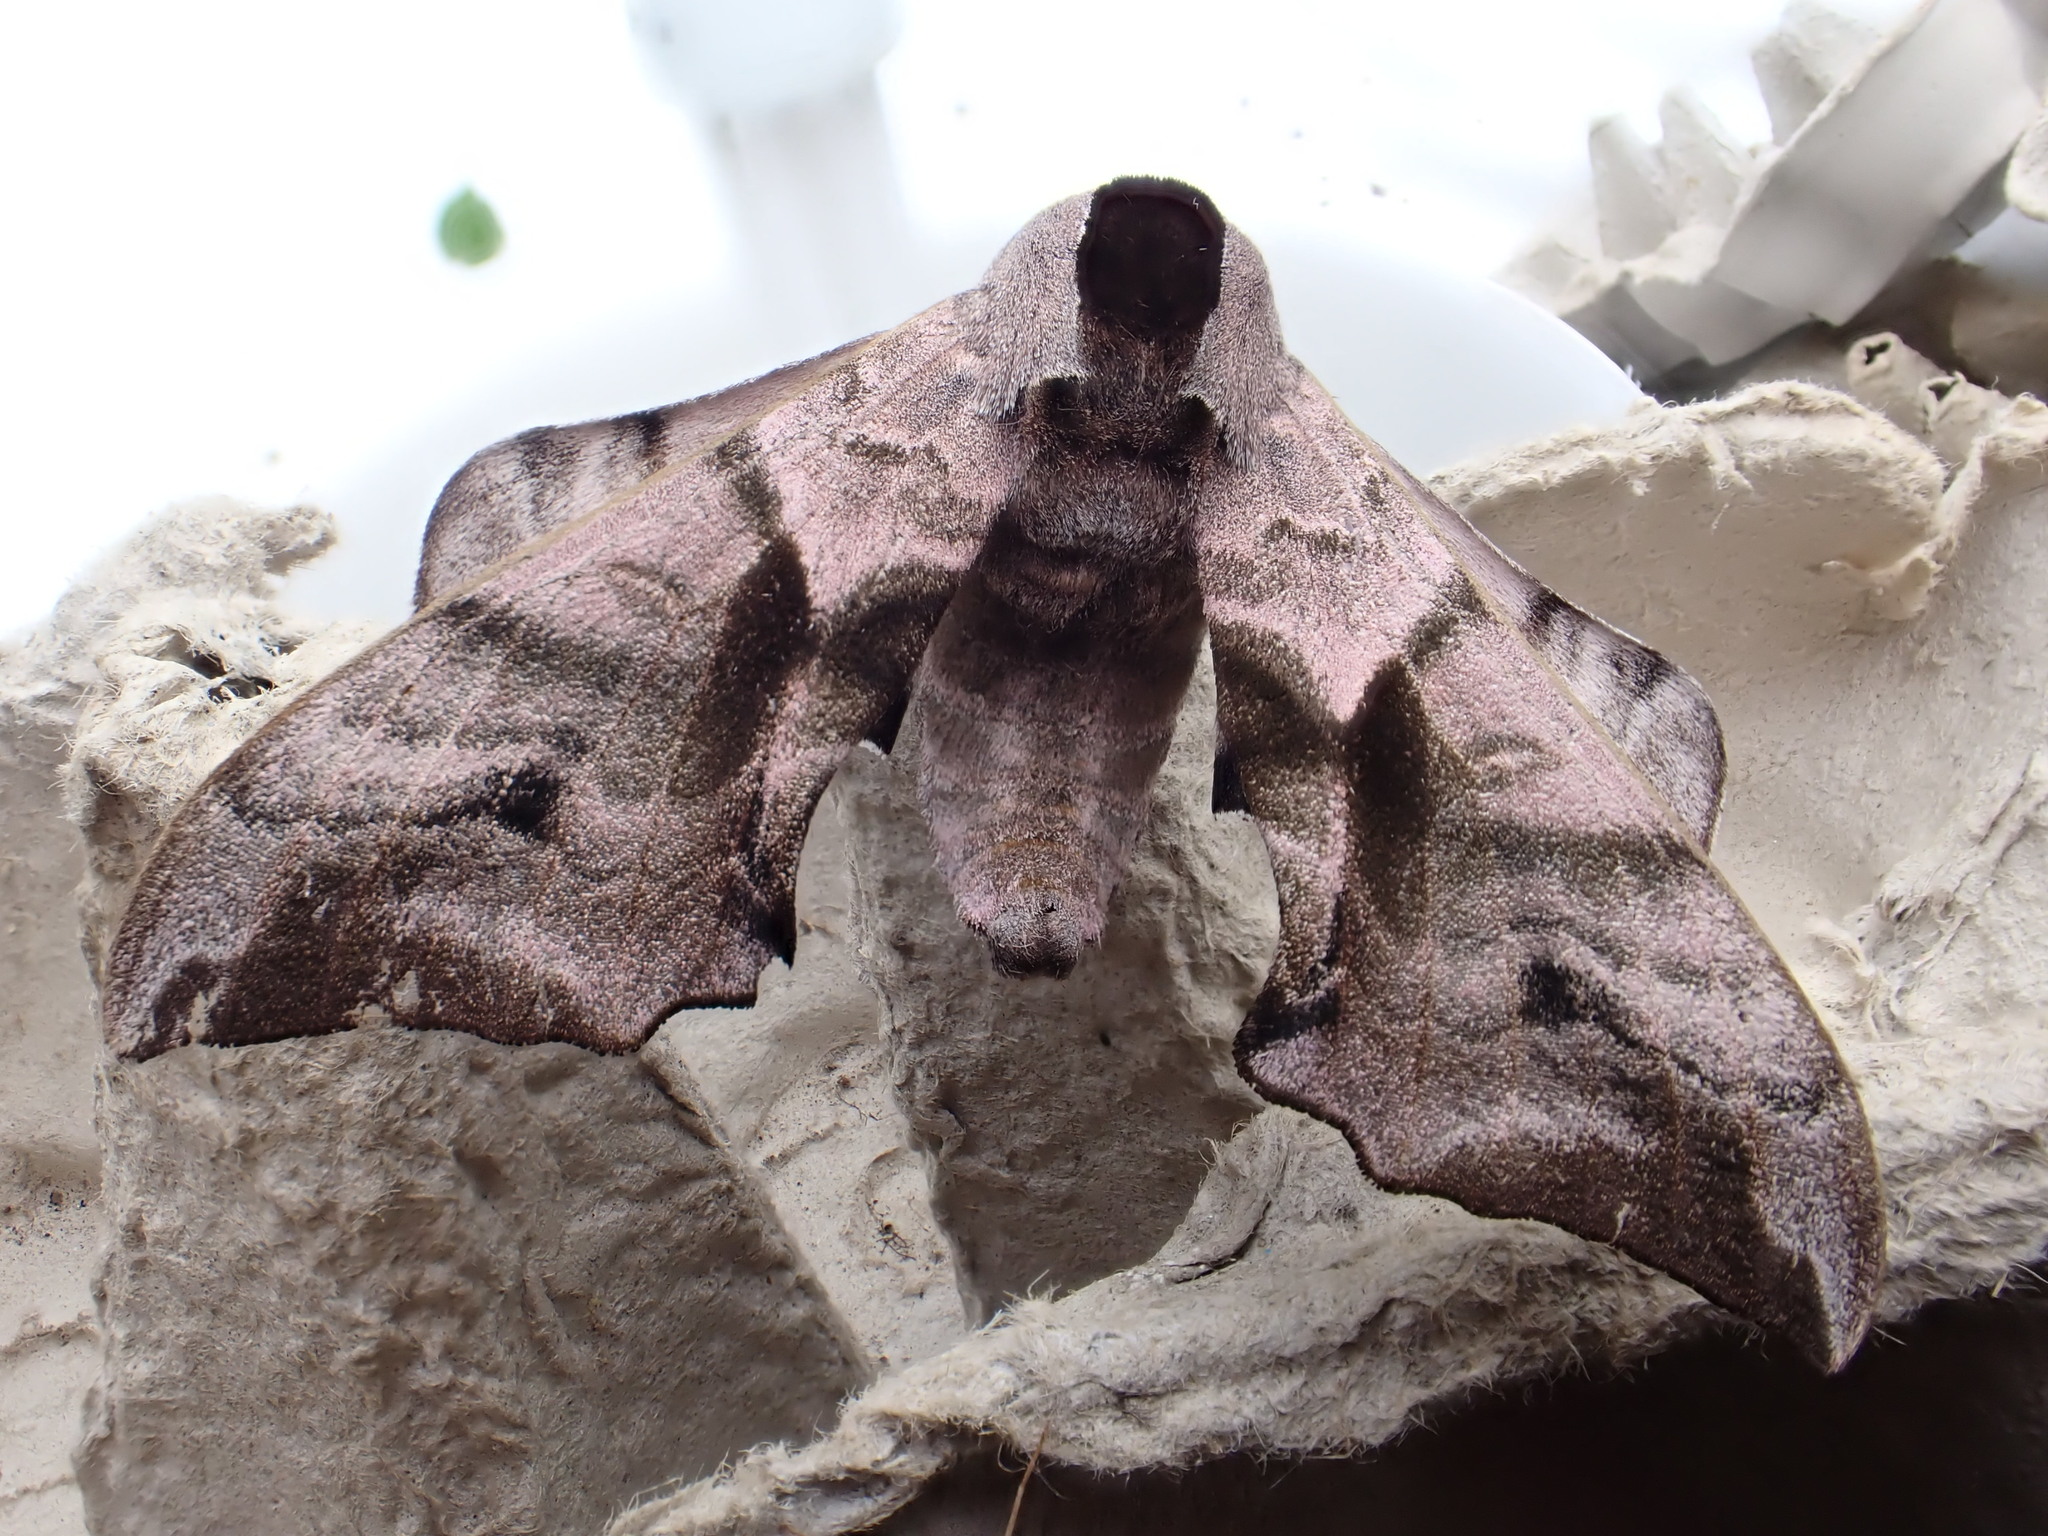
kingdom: Animalia
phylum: Arthropoda
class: Insecta
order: Lepidoptera
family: Sphingidae
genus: Smerinthus
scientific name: Smerinthus ocellata
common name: Eyed hawk-moth
